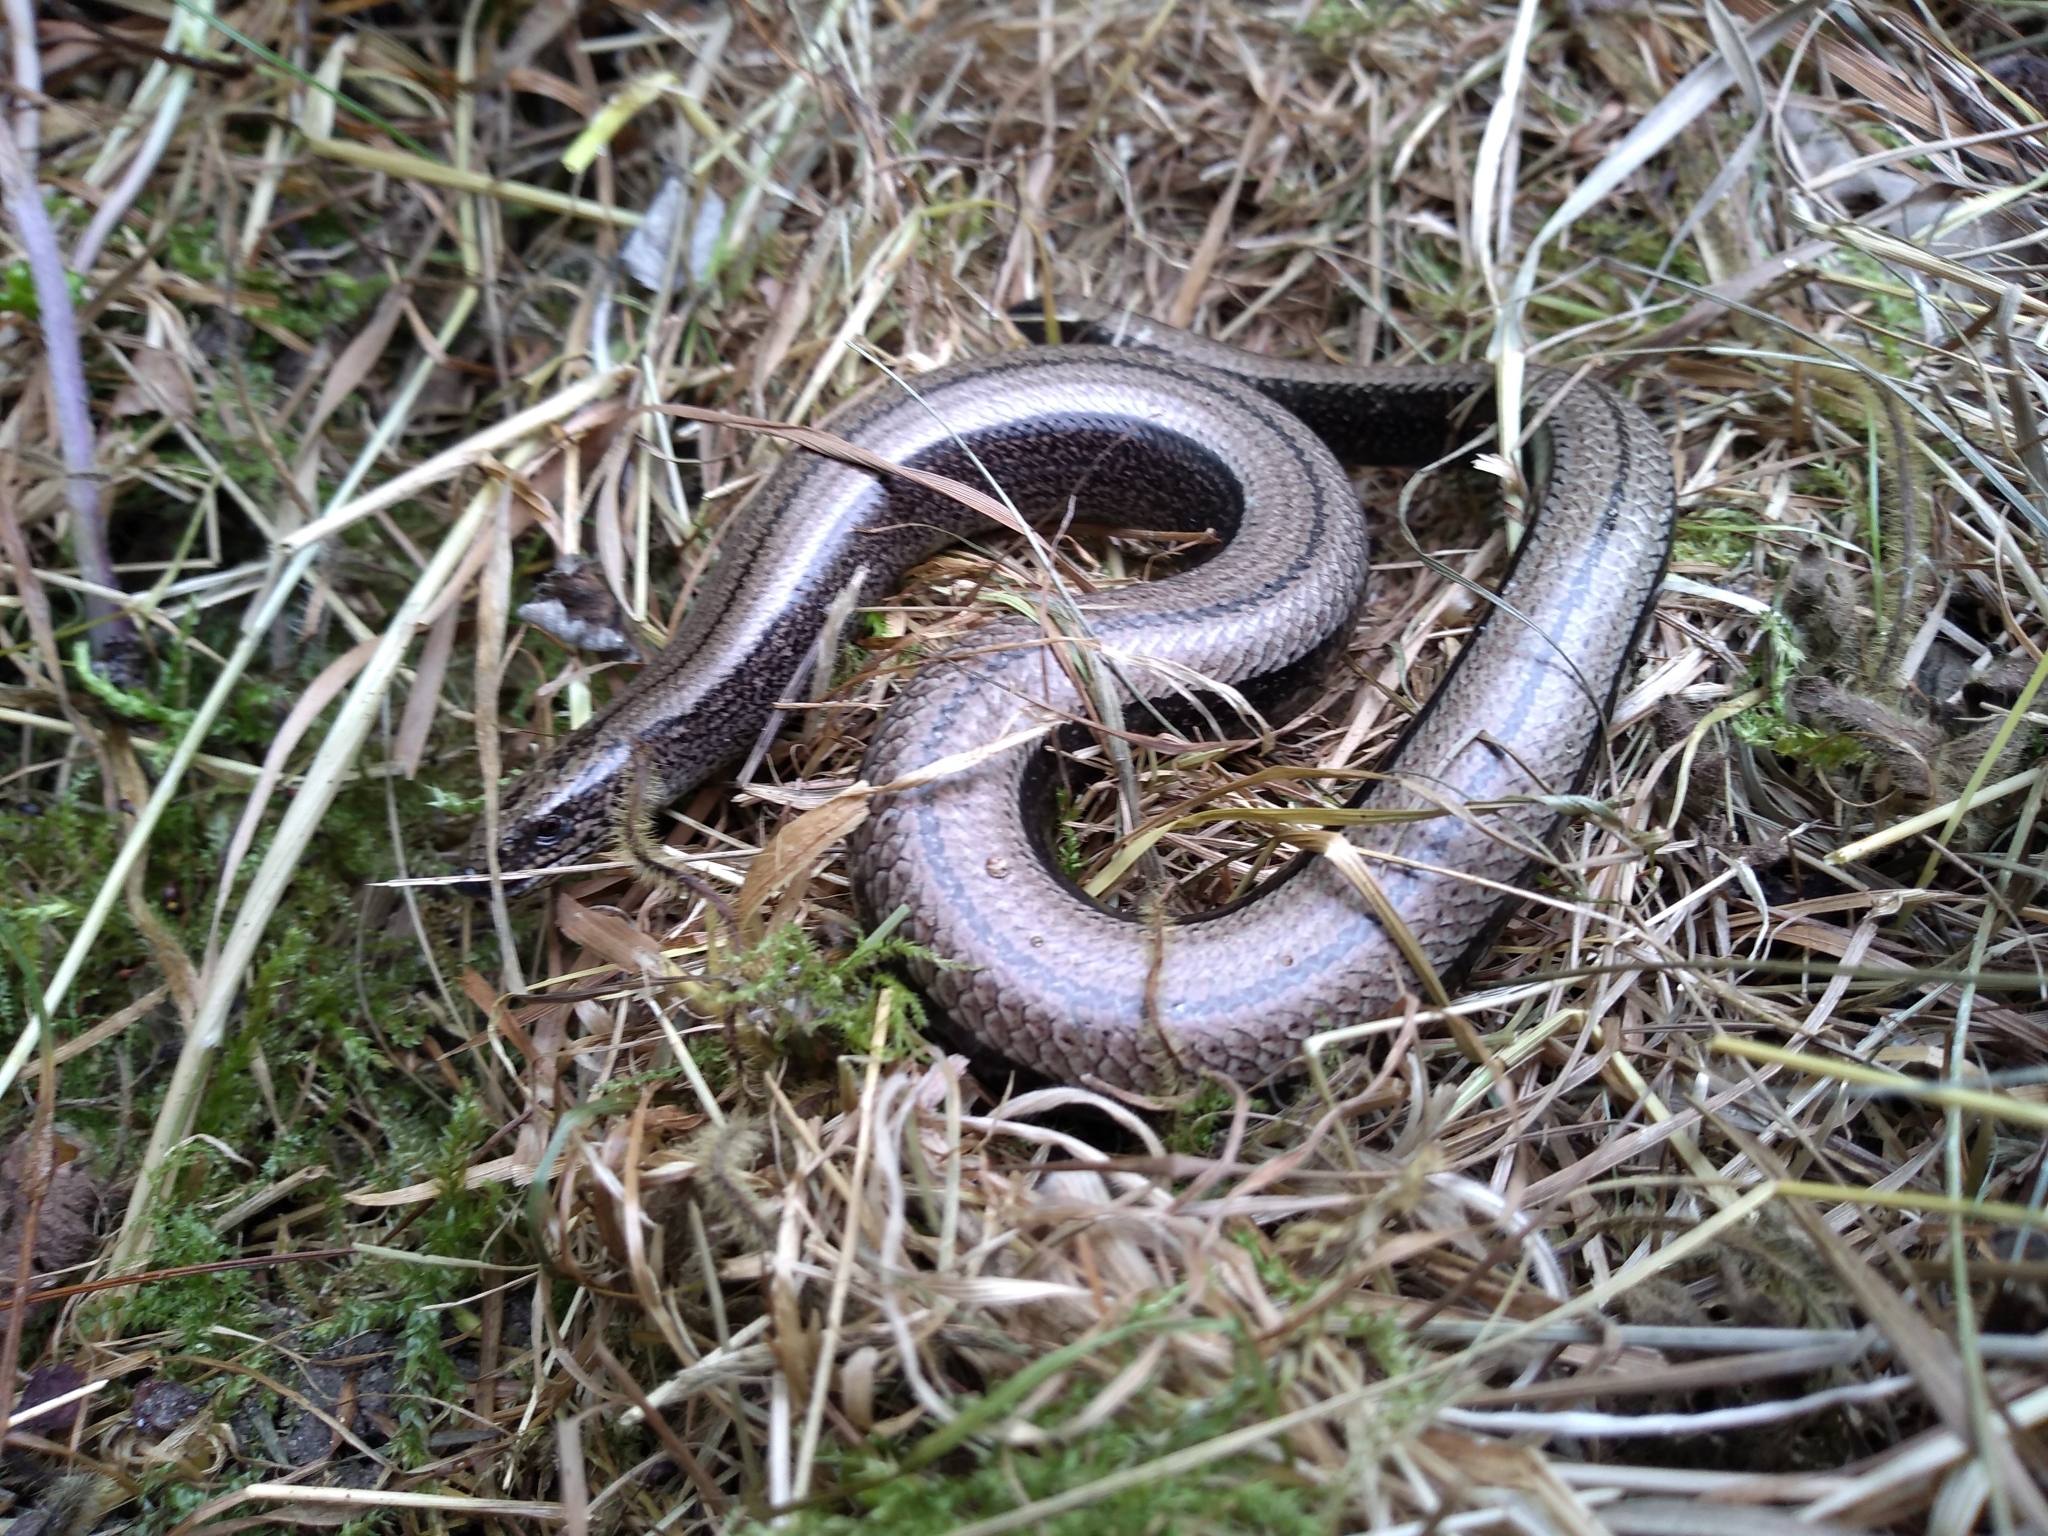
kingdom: Animalia
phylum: Chordata
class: Squamata
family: Anguidae
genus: Anguis
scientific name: Anguis fragilis
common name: Slow worm
